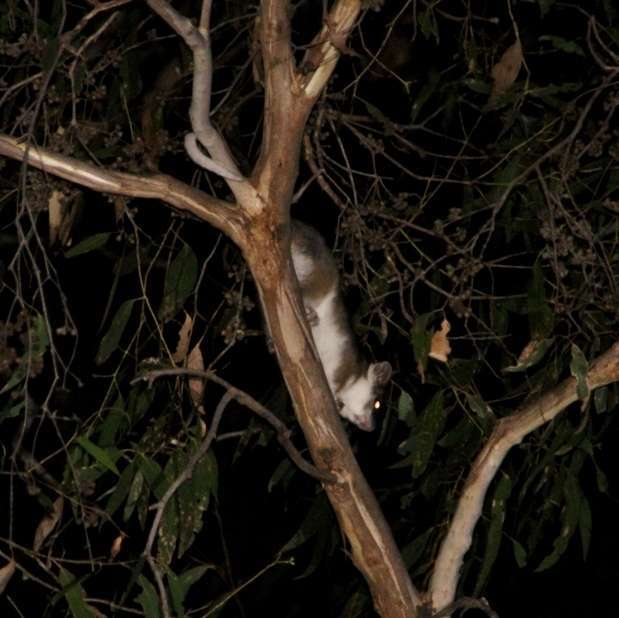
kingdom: Animalia
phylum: Chordata
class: Mammalia
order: Diprotodontia
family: Pseudocheiridae
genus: Pseudocheirus
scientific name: Pseudocheirus peregrinus
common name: Common ringtail possum
